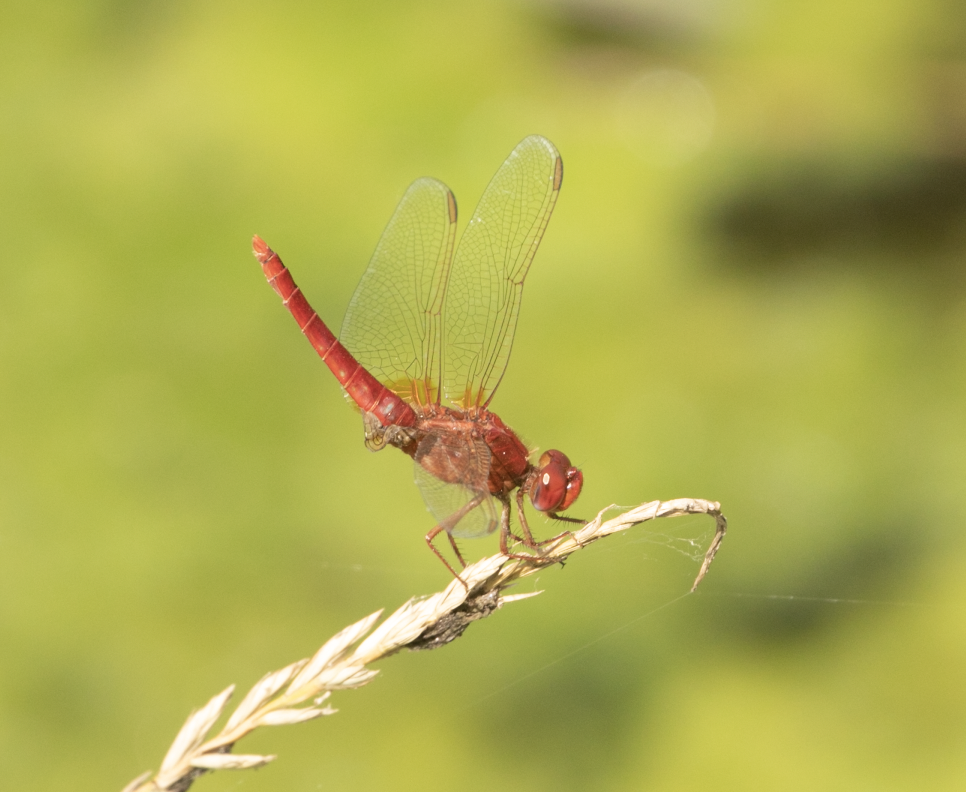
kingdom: Animalia
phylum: Arthropoda
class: Insecta
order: Odonata
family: Libellulidae
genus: Crocothemis
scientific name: Crocothemis erythraea
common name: Scarlet dragonfly
